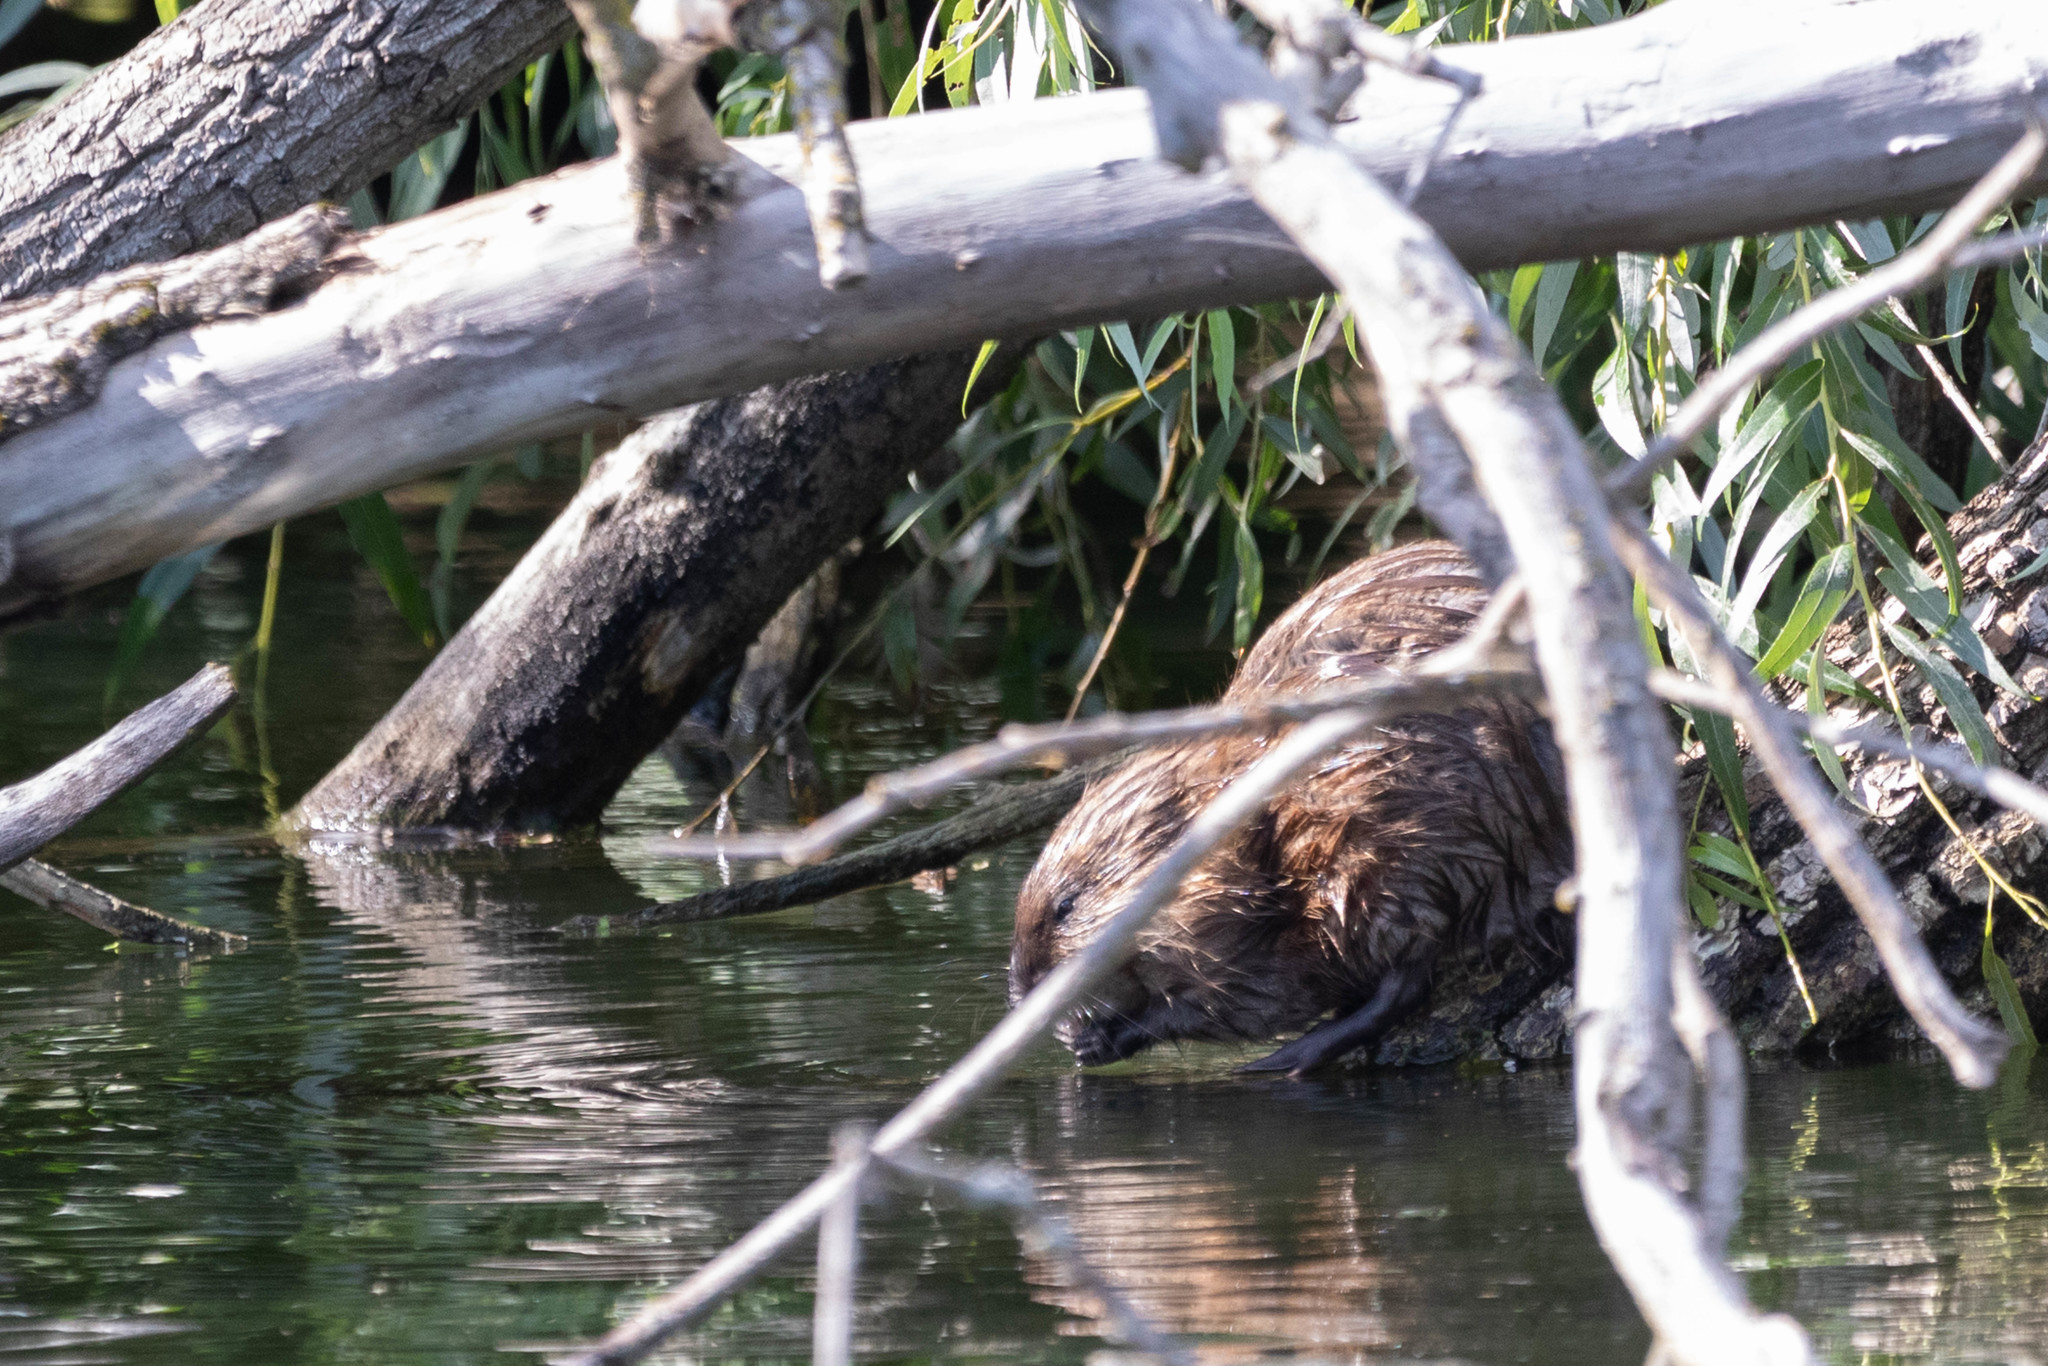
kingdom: Animalia
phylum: Chordata
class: Mammalia
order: Rodentia
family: Cricetidae
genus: Ondatra
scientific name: Ondatra zibethicus
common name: Muskrat
